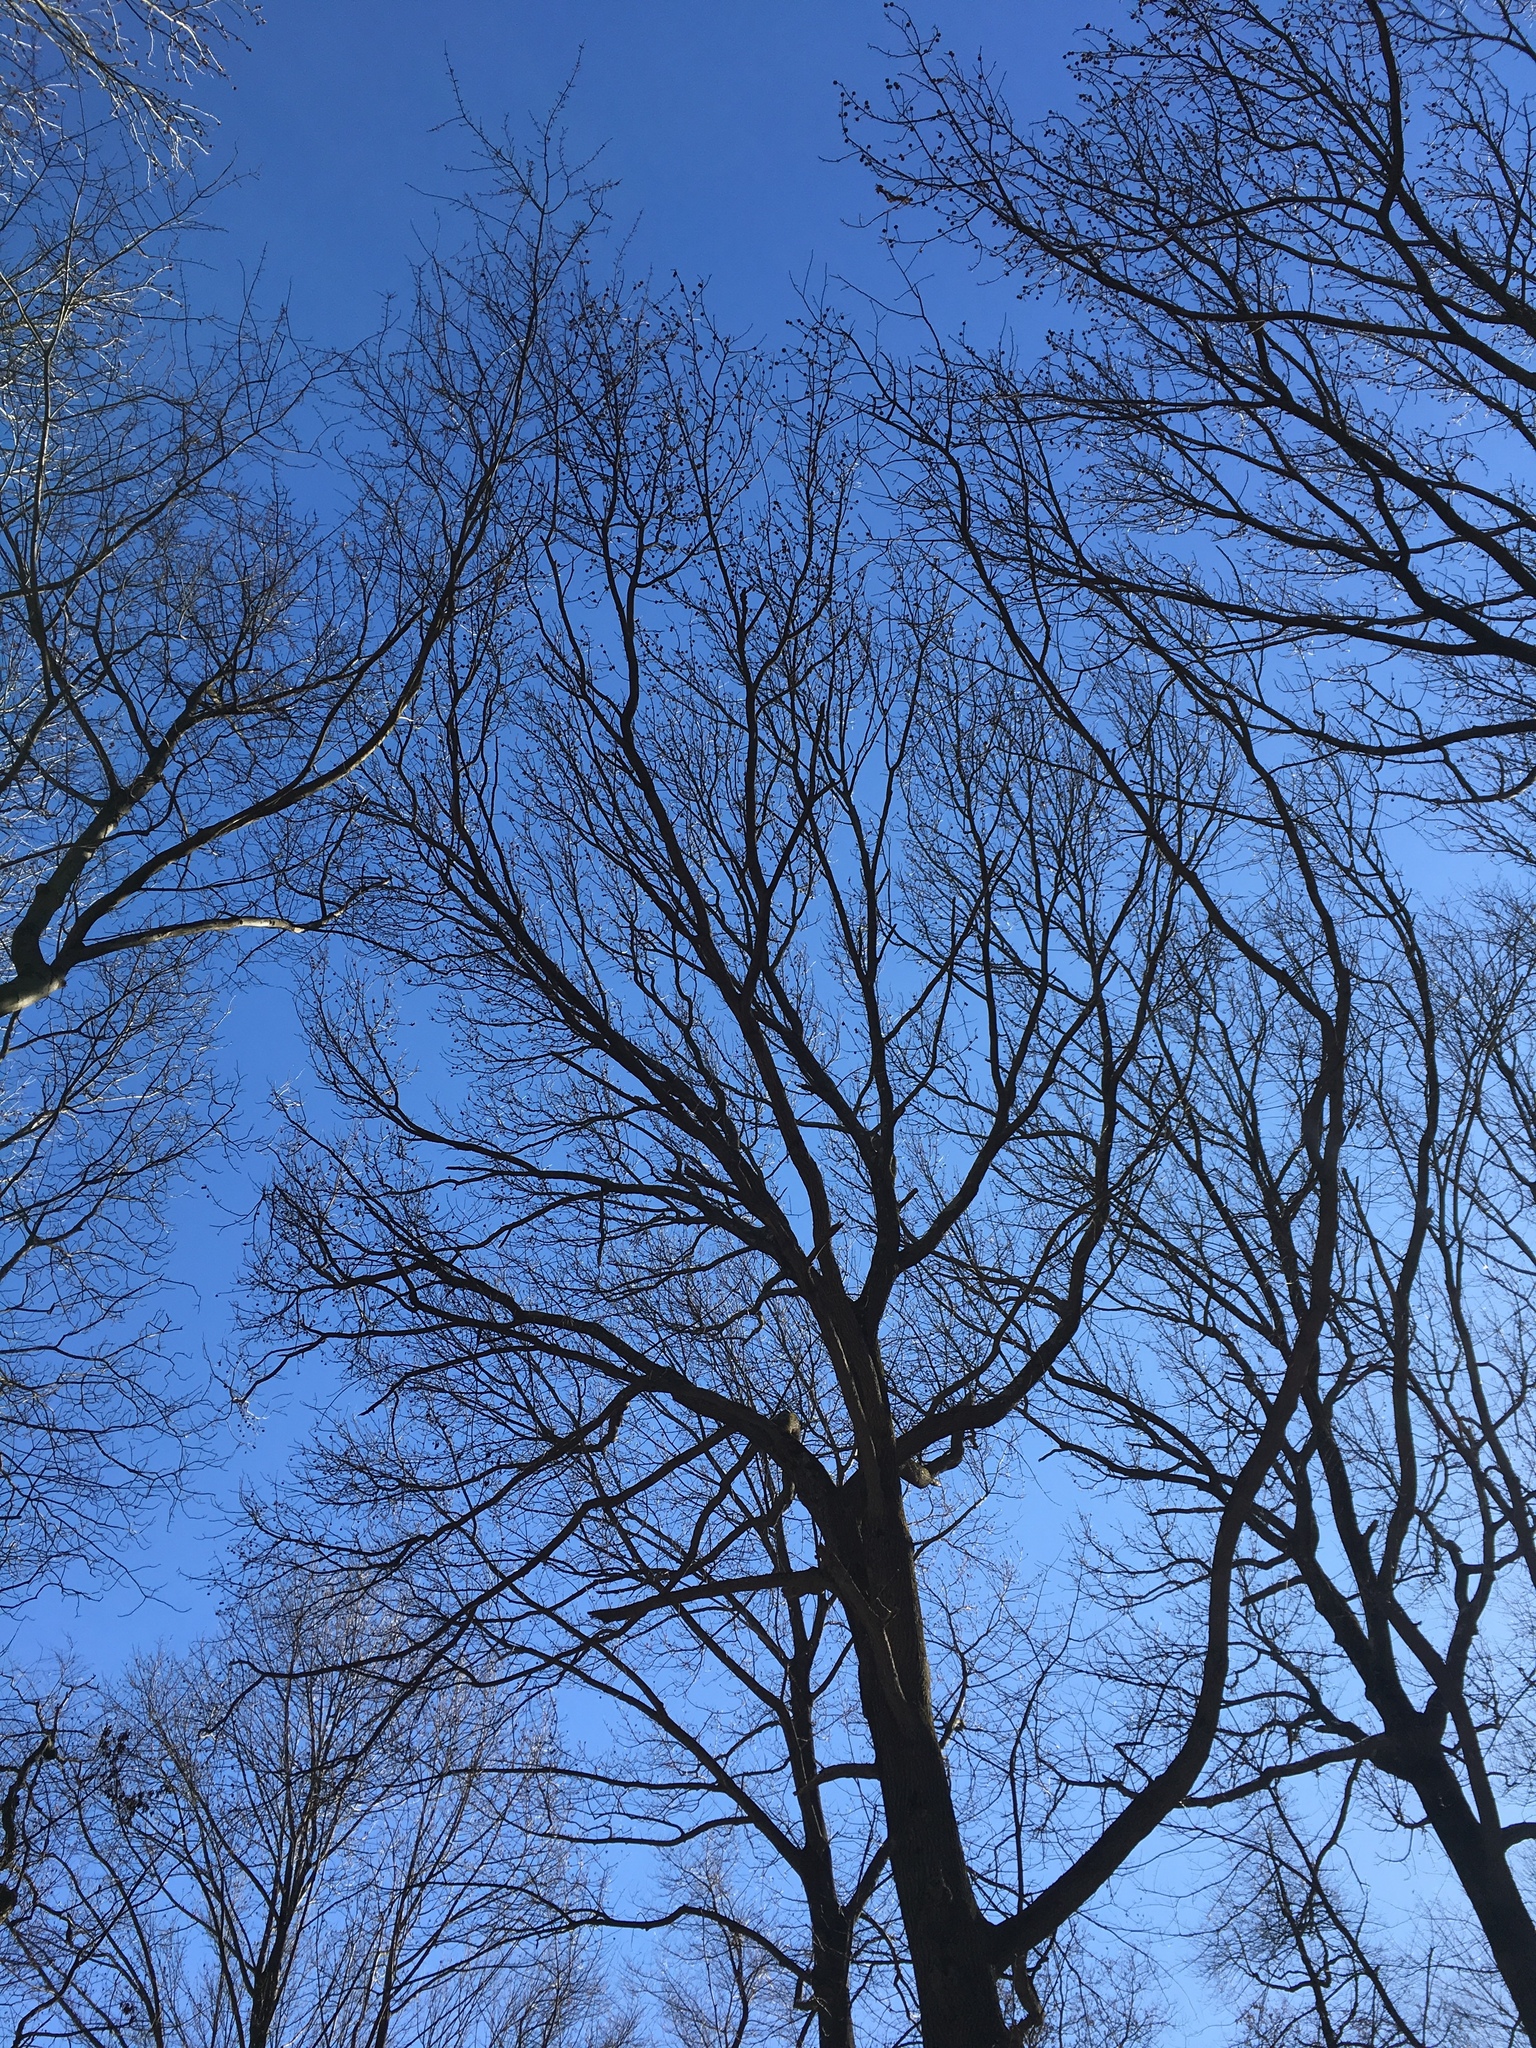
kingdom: Plantae
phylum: Tracheophyta
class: Magnoliopsida
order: Saxifragales
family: Altingiaceae
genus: Liquidambar
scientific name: Liquidambar styraciflua
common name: Sweet gum
